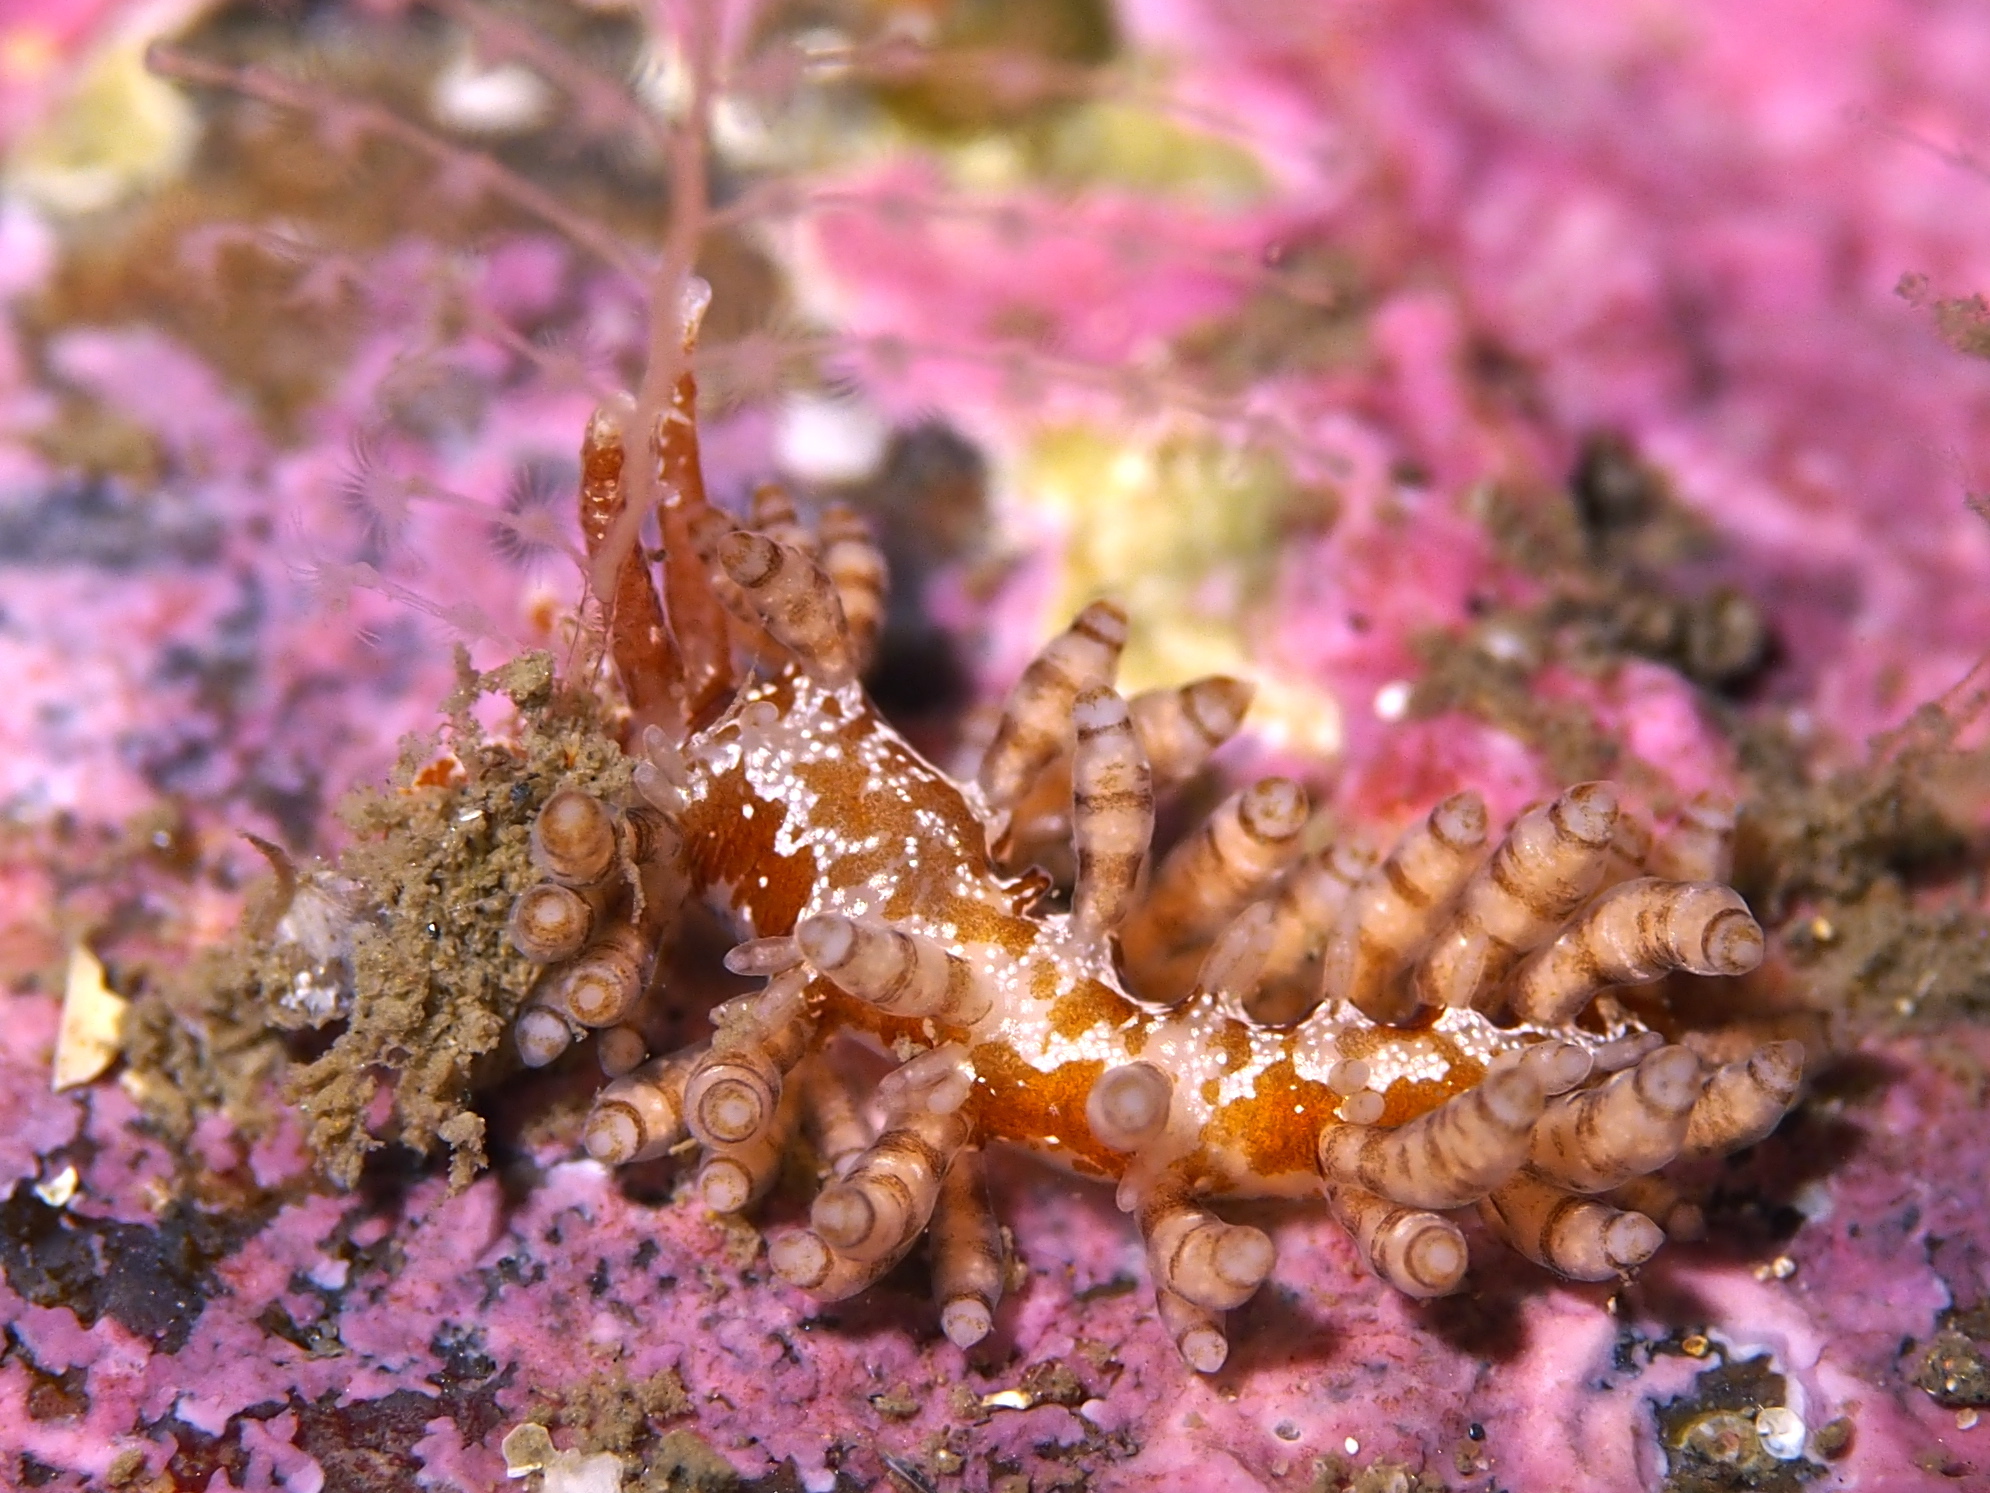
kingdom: Animalia
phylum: Mollusca
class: Gastropoda
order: Nudibranchia
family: Eubranchidae
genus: Eubranchus
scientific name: Eubranchus vittatus
